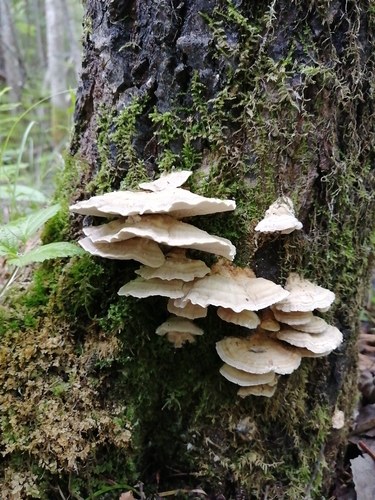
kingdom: Fungi
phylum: Basidiomycota
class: Agaricomycetes
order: Polyporales
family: Dacryobolaceae
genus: Postia
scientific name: Postia
